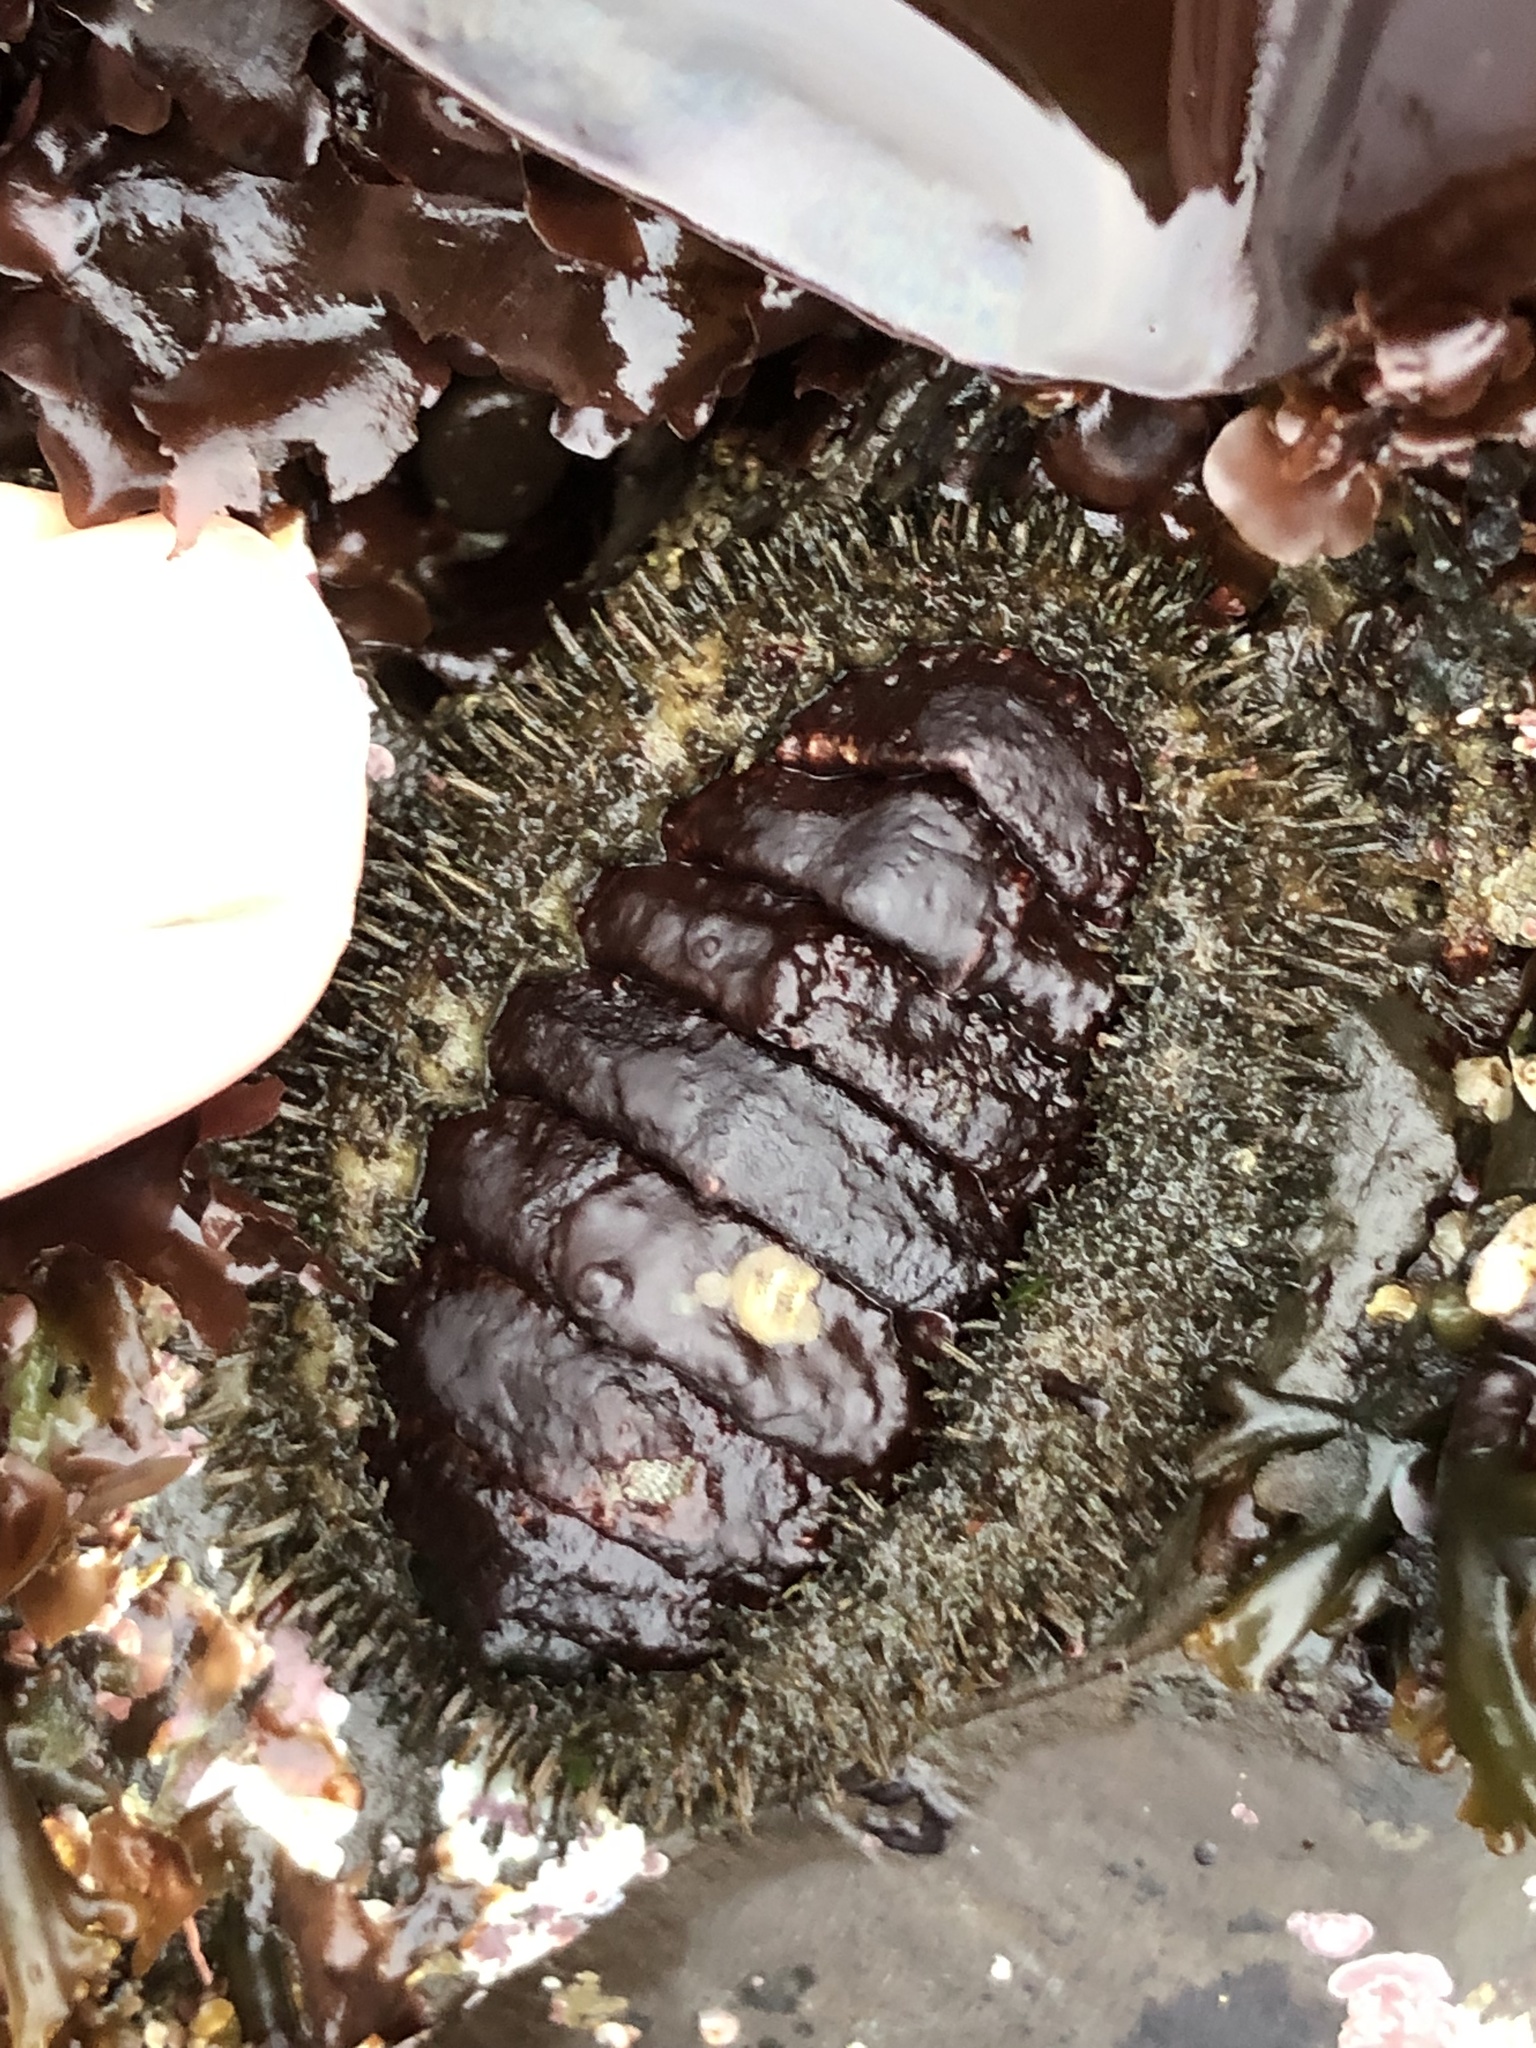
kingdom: Animalia
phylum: Mollusca
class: Polyplacophora
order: Chitonida
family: Mopaliidae
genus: Mopalia
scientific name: Mopalia muscosa
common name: Mossy chiton
